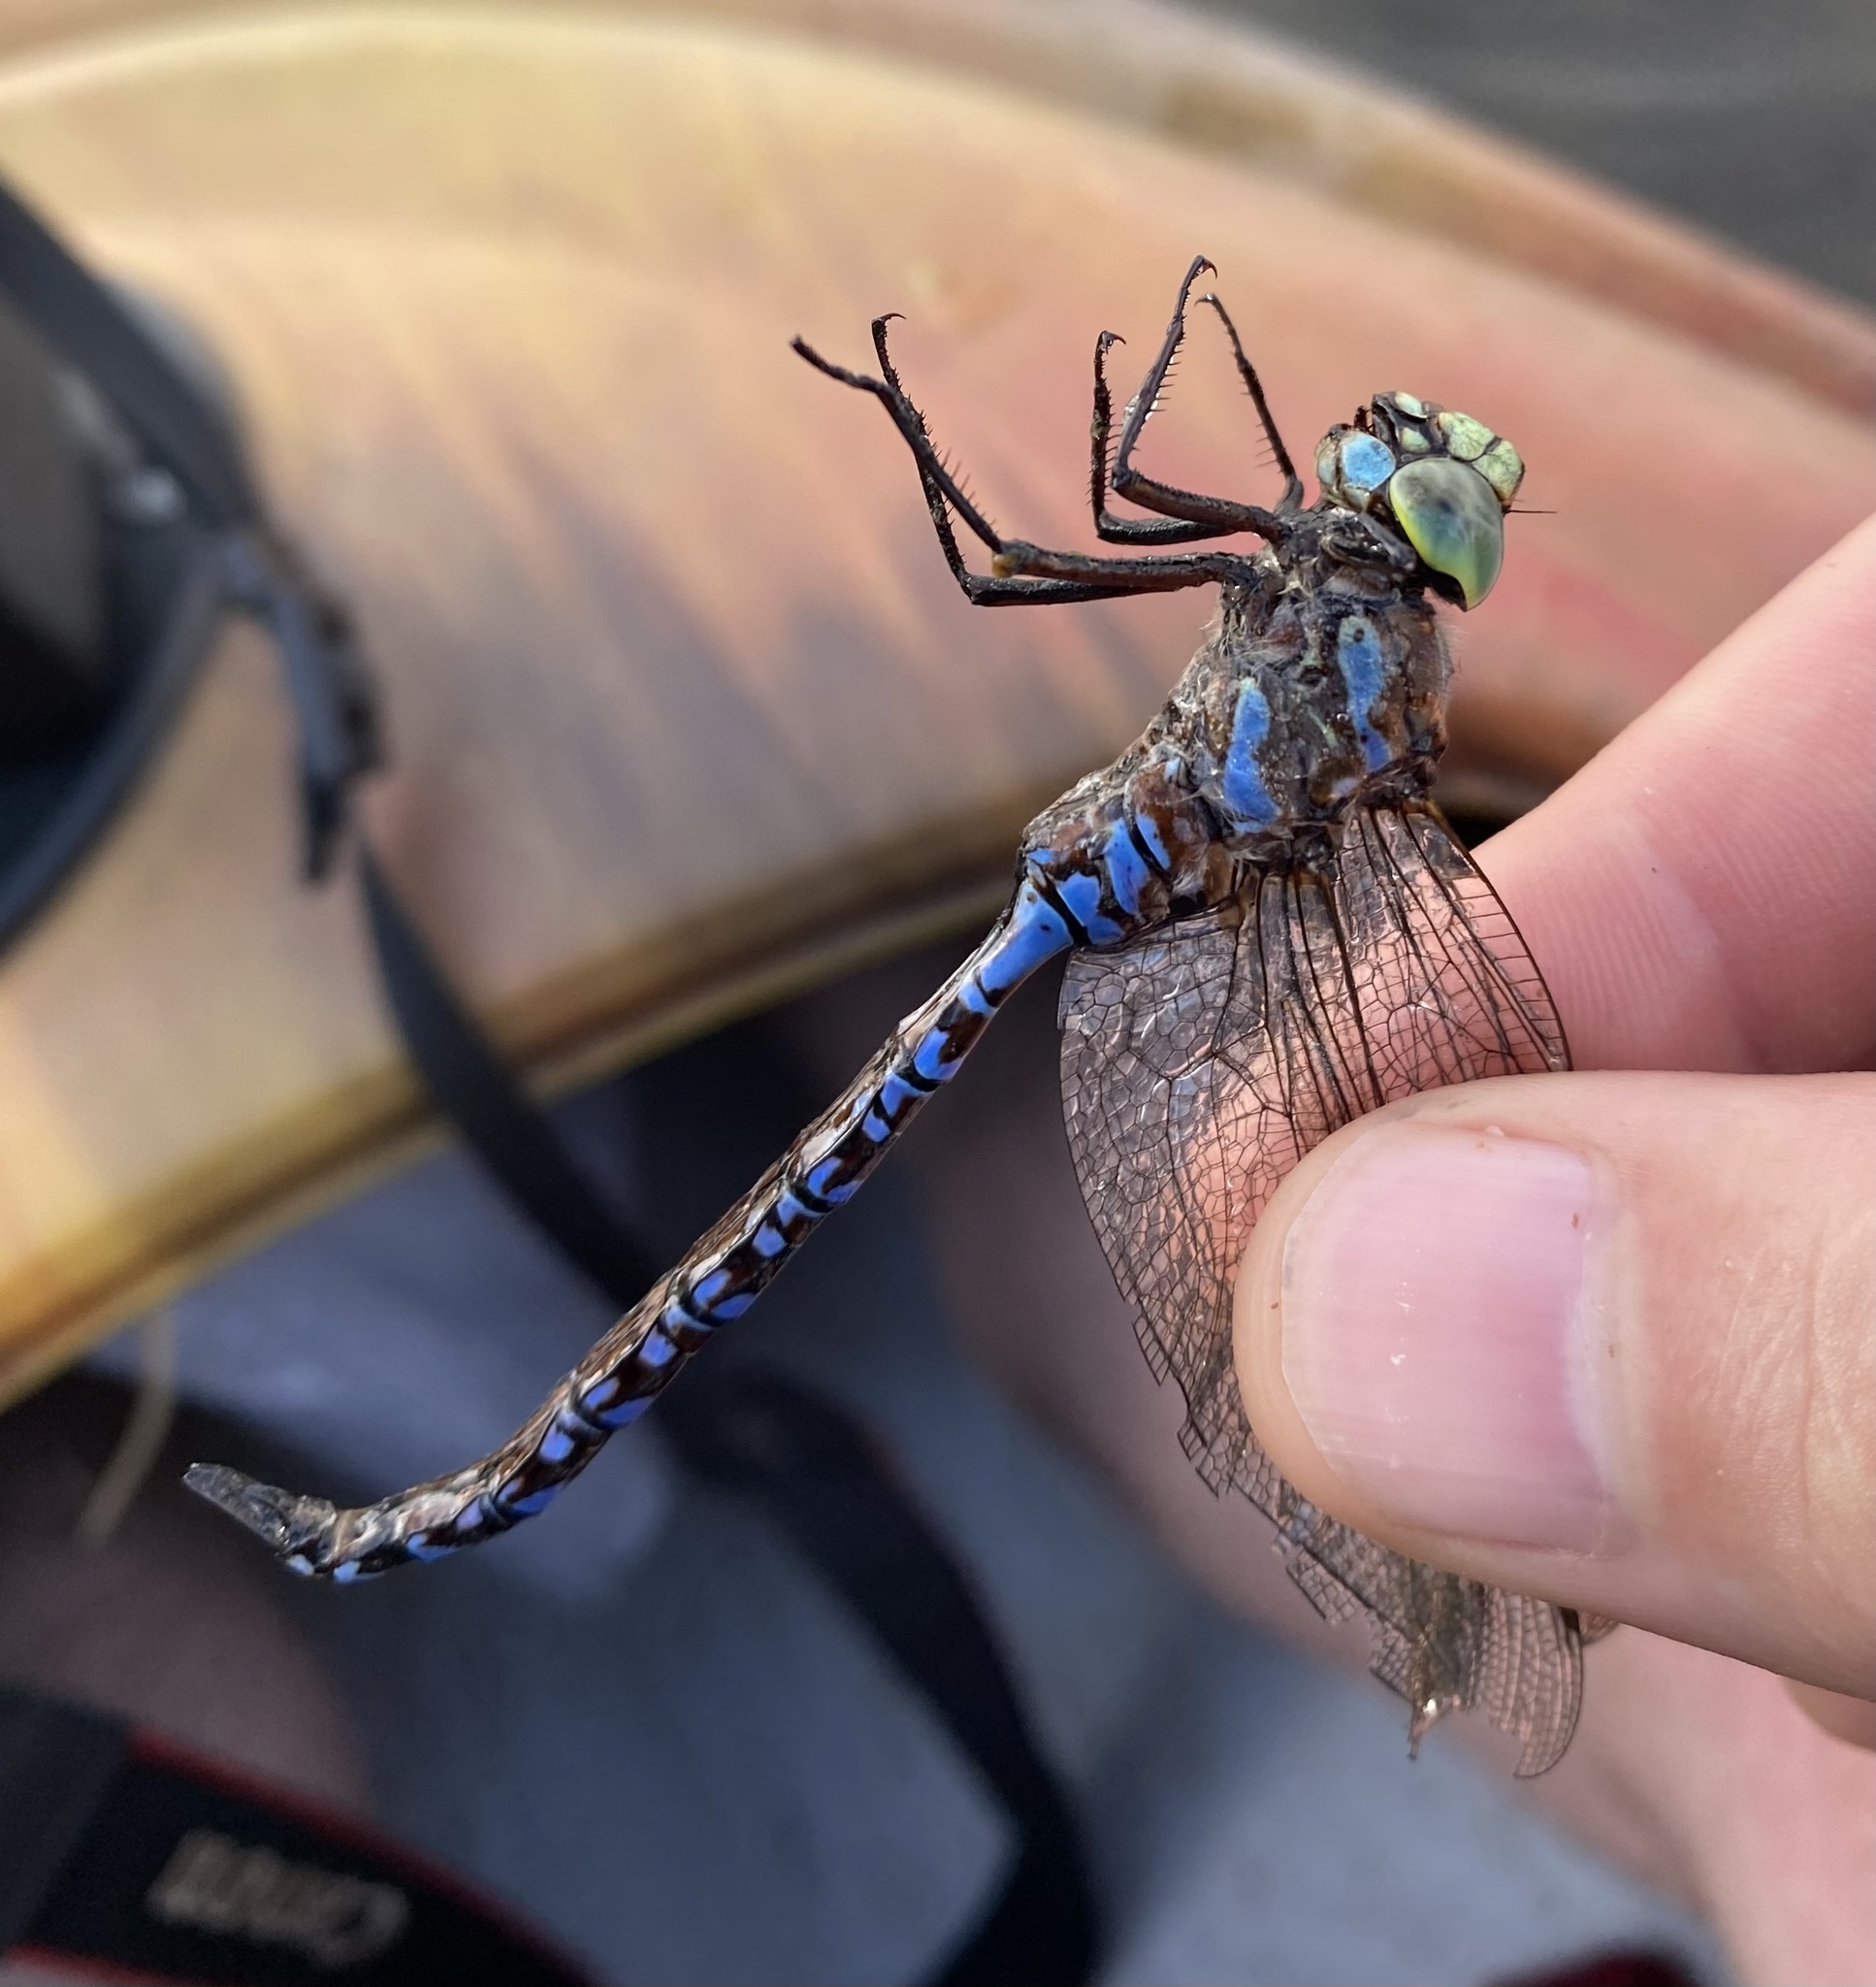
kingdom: Animalia
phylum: Arthropoda
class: Insecta
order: Odonata
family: Aeshnidae
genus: Aeshna
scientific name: Aeshna eremita
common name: Lake darner
